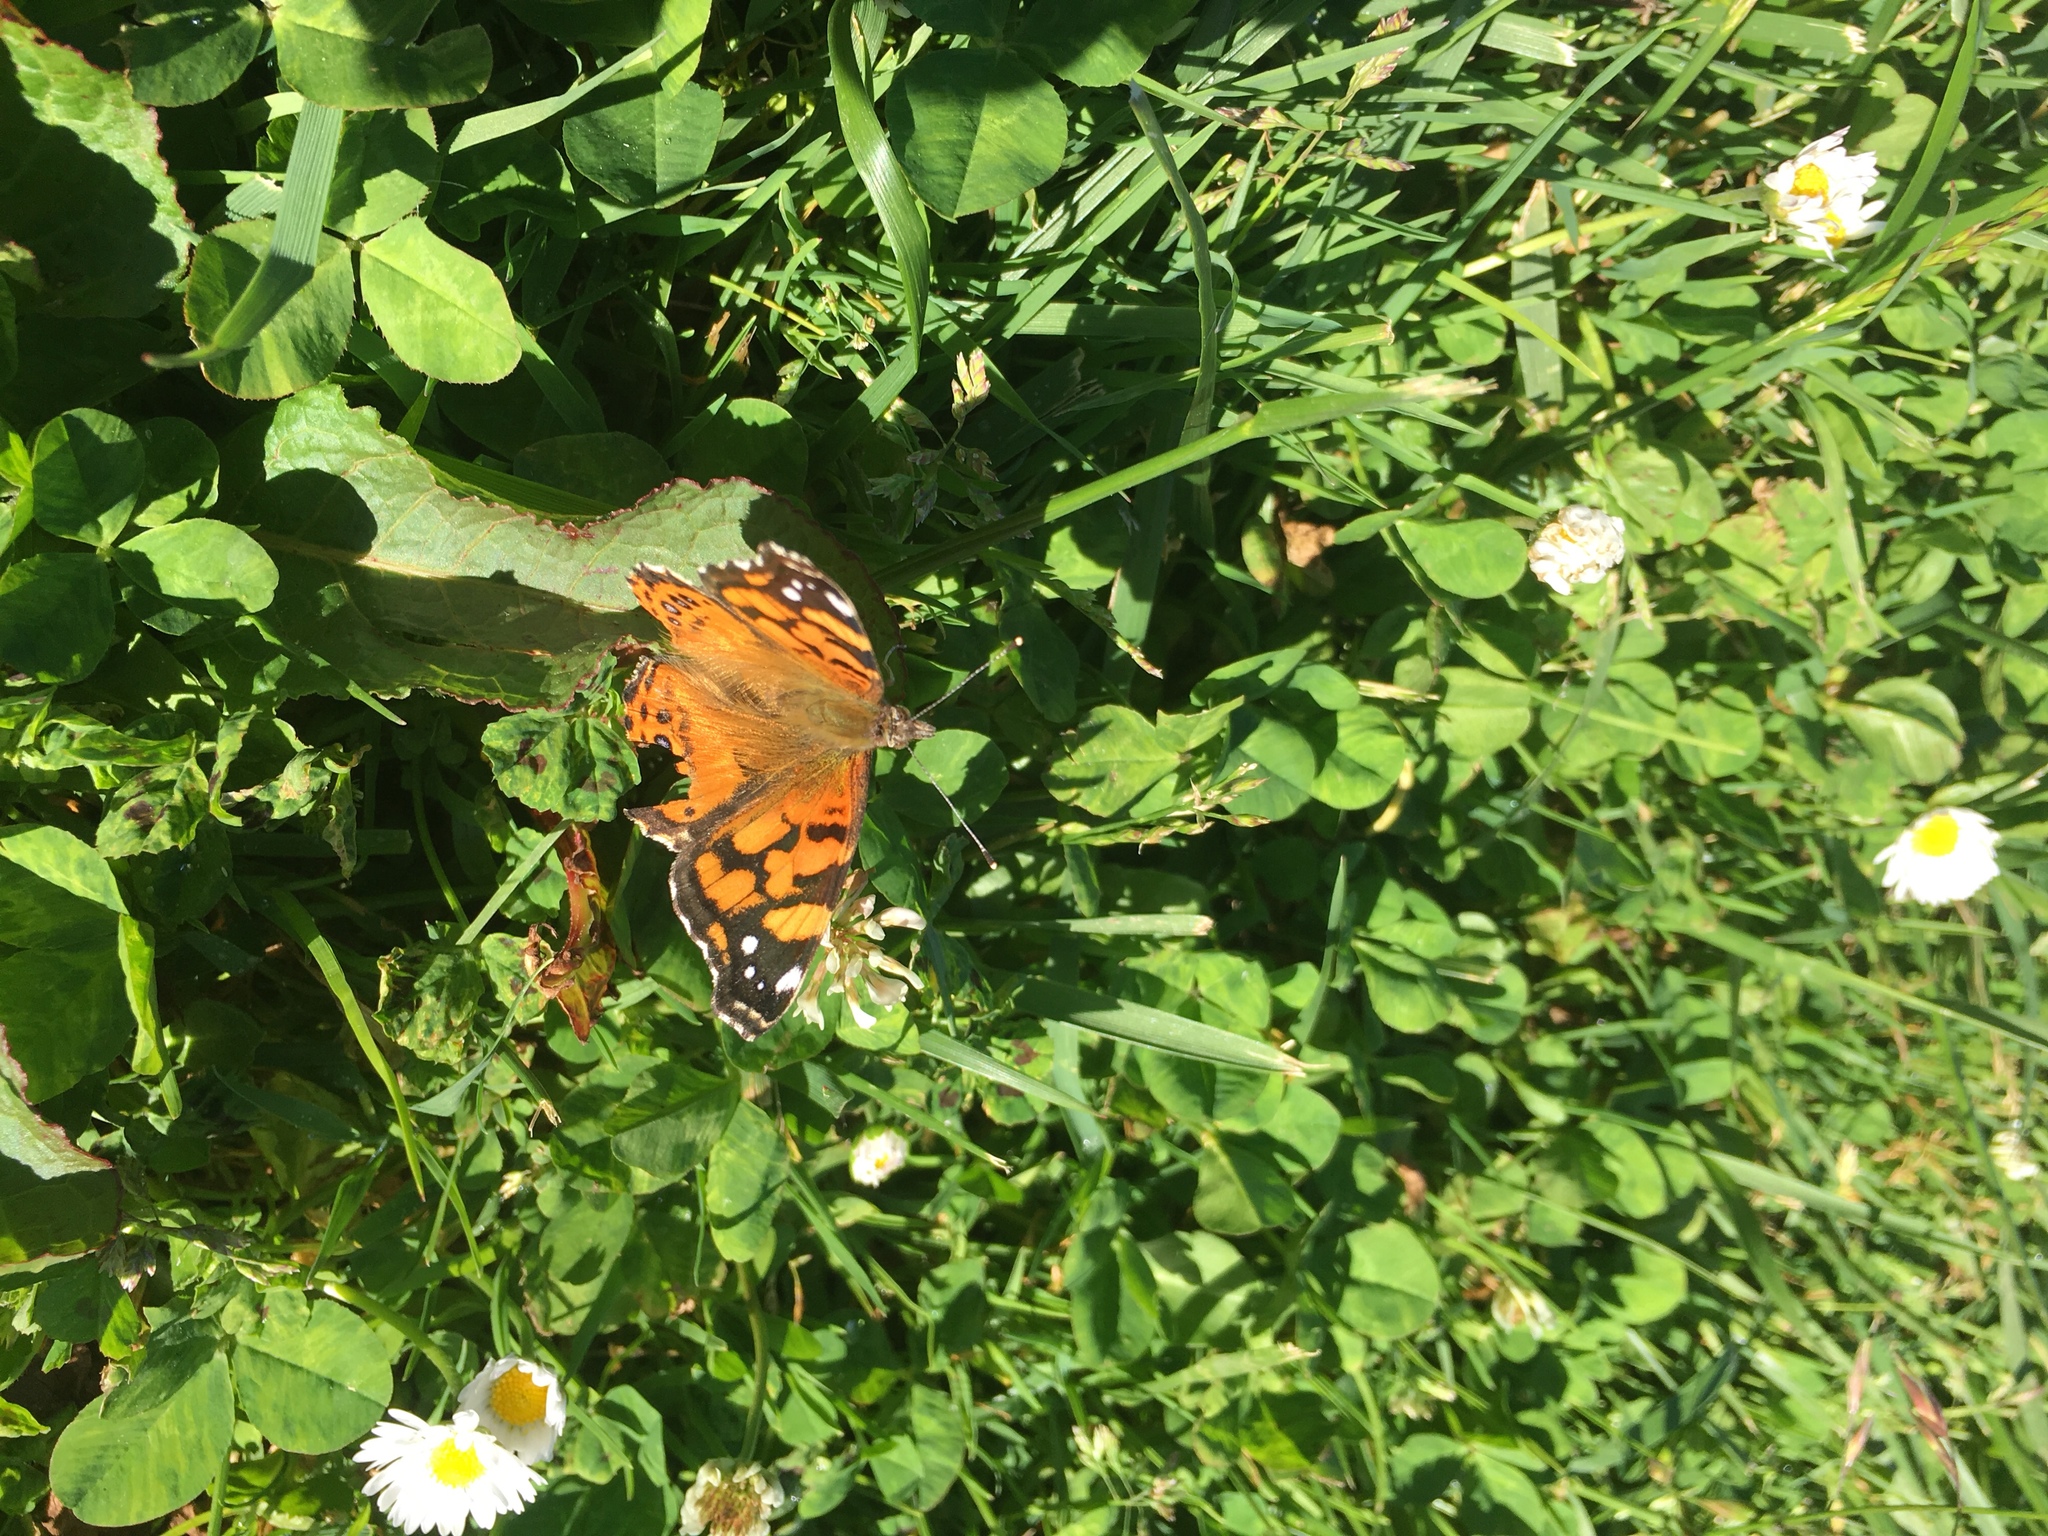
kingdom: Animalia
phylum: Arthropoda
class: Insecta
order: Lepidoptera
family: Nymphalidae
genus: Vanessa
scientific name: Vanessa annabella
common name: West coast lady
